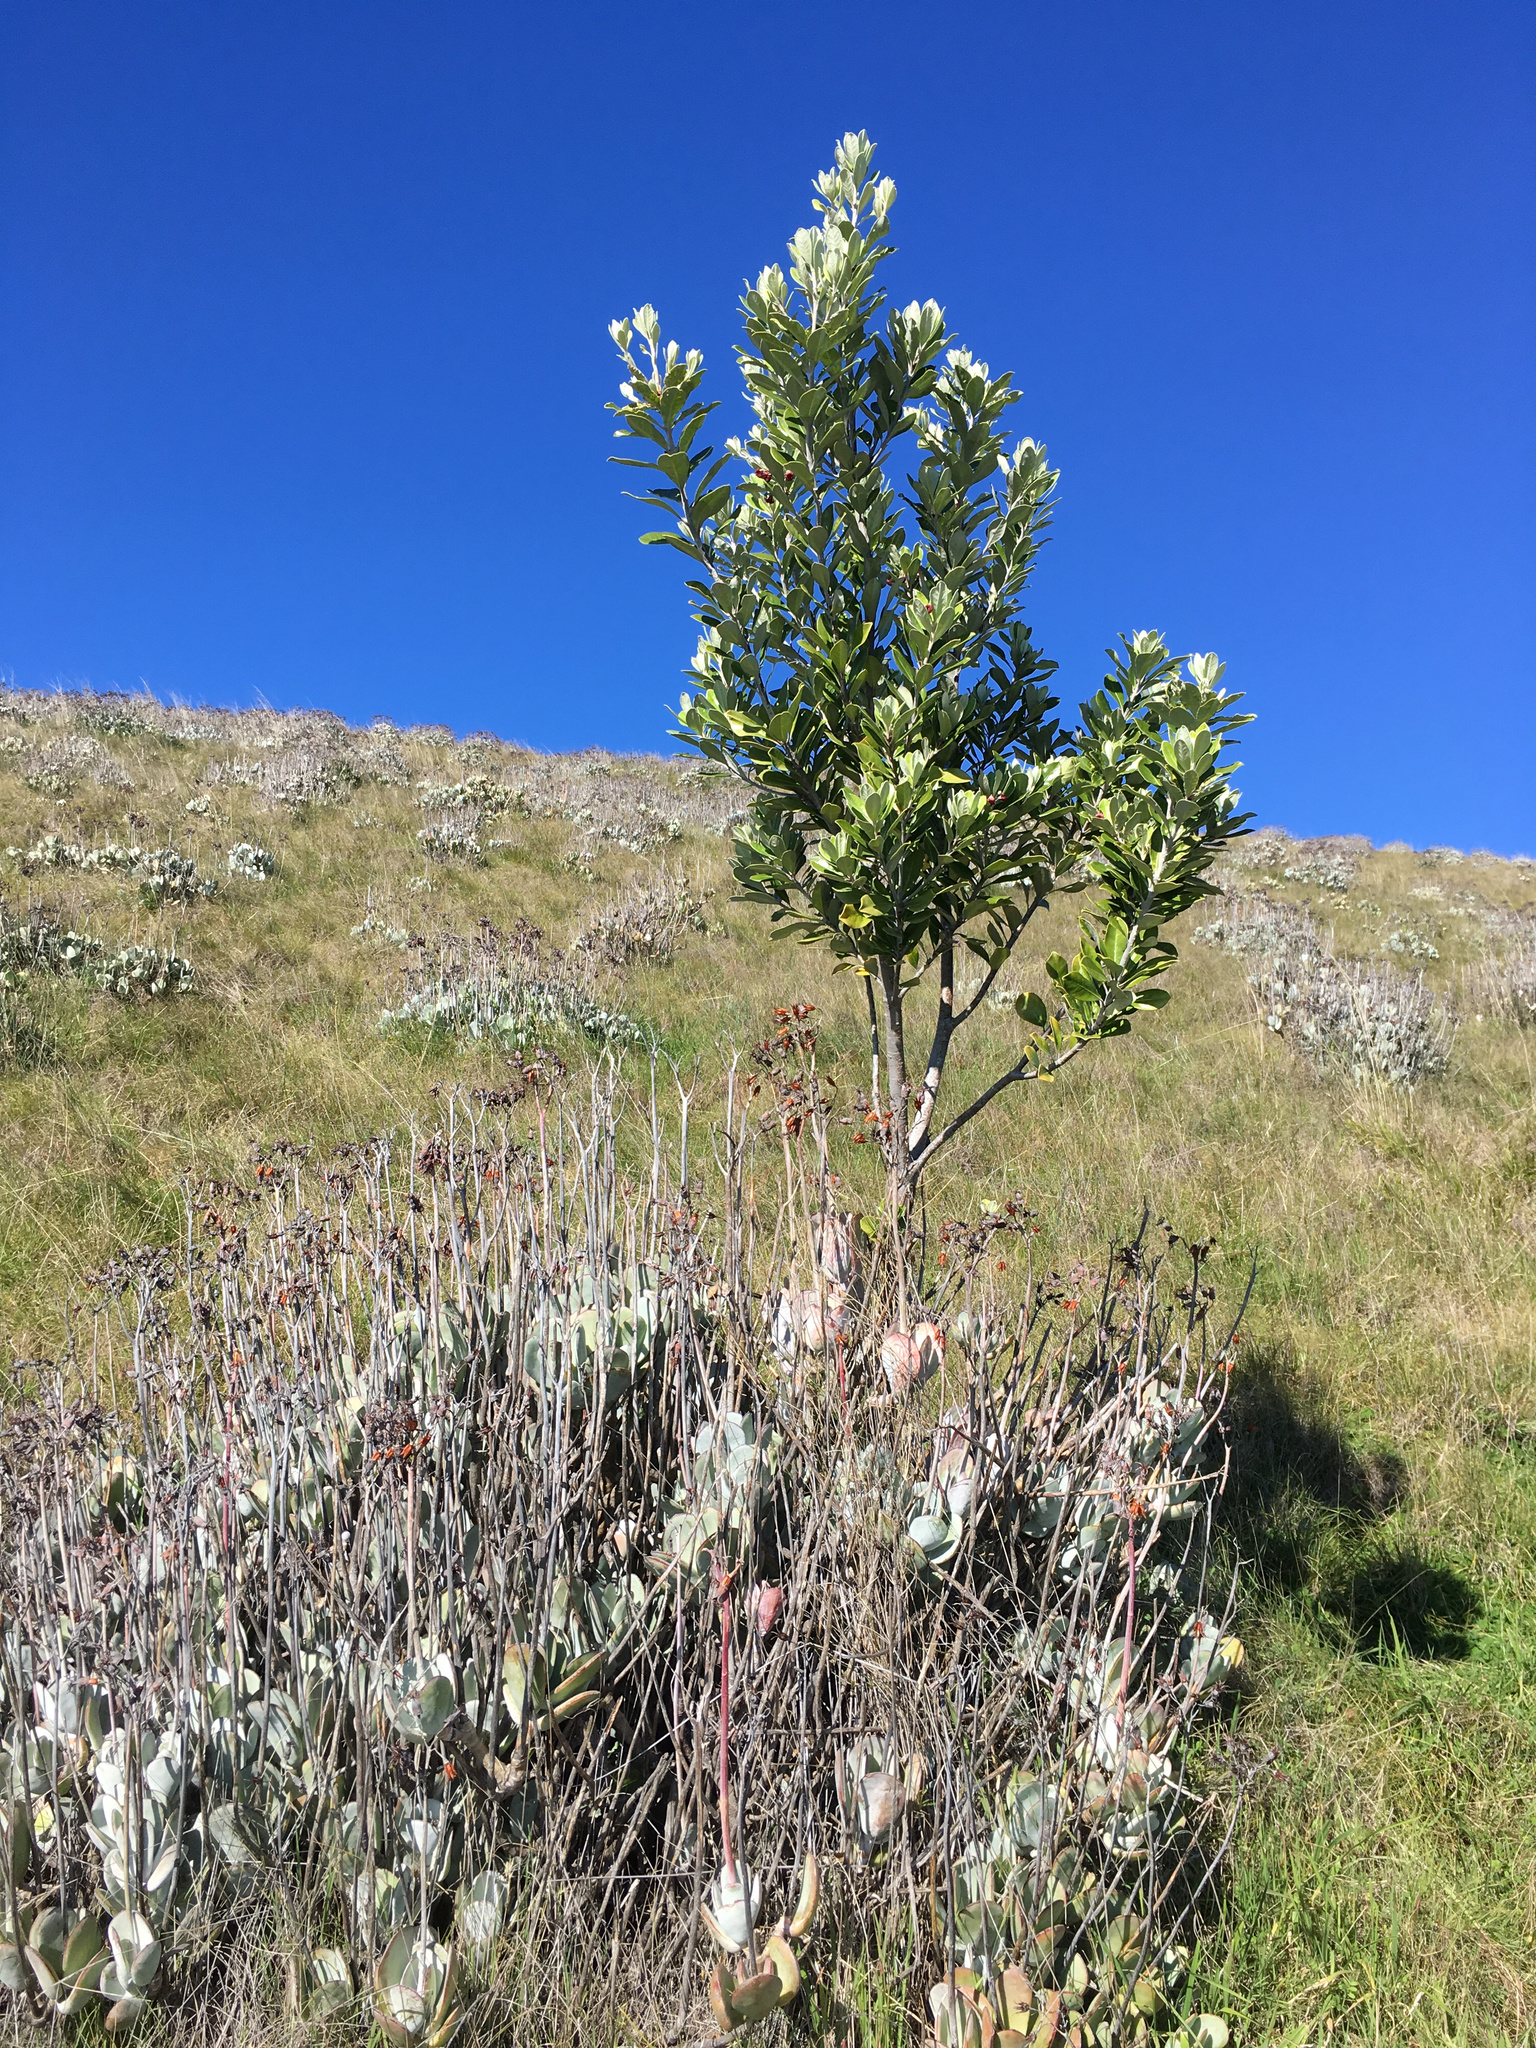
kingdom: Plantae
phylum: Tracheophyta
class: Magnoliopsida
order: Apiales
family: Pittosporaceae
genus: Pittosporum
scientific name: Pittosporum crassifolium
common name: Karo
